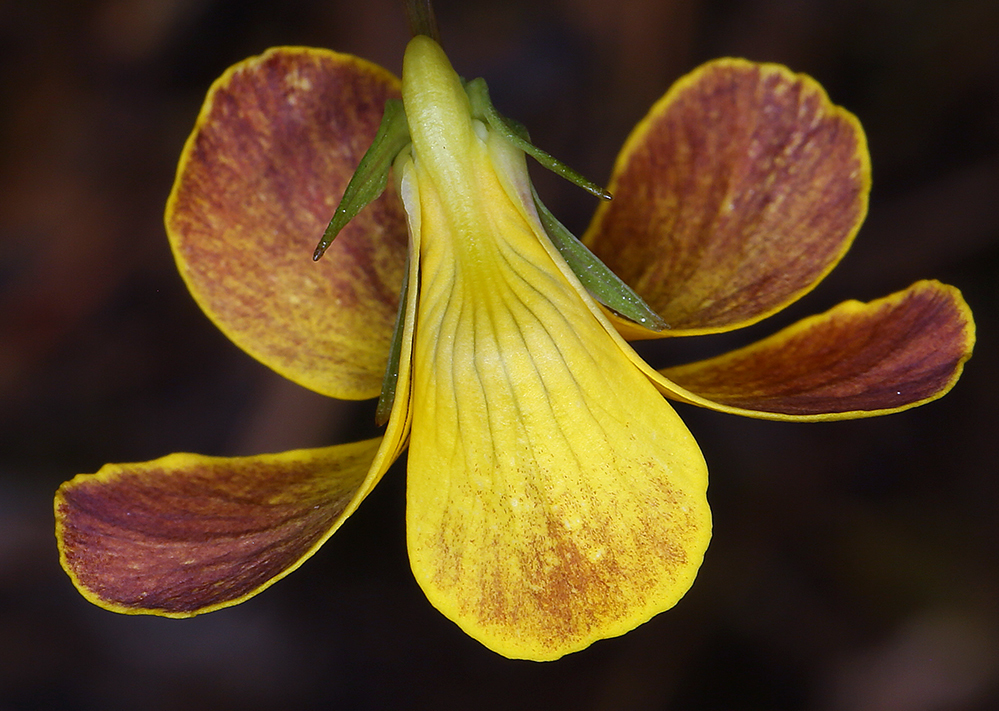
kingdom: Plantae
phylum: Tracheophyta
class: Magnoliopsida
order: Malpighiales
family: Violaceae
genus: Viola
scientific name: Viola lobata
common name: Pine violet
